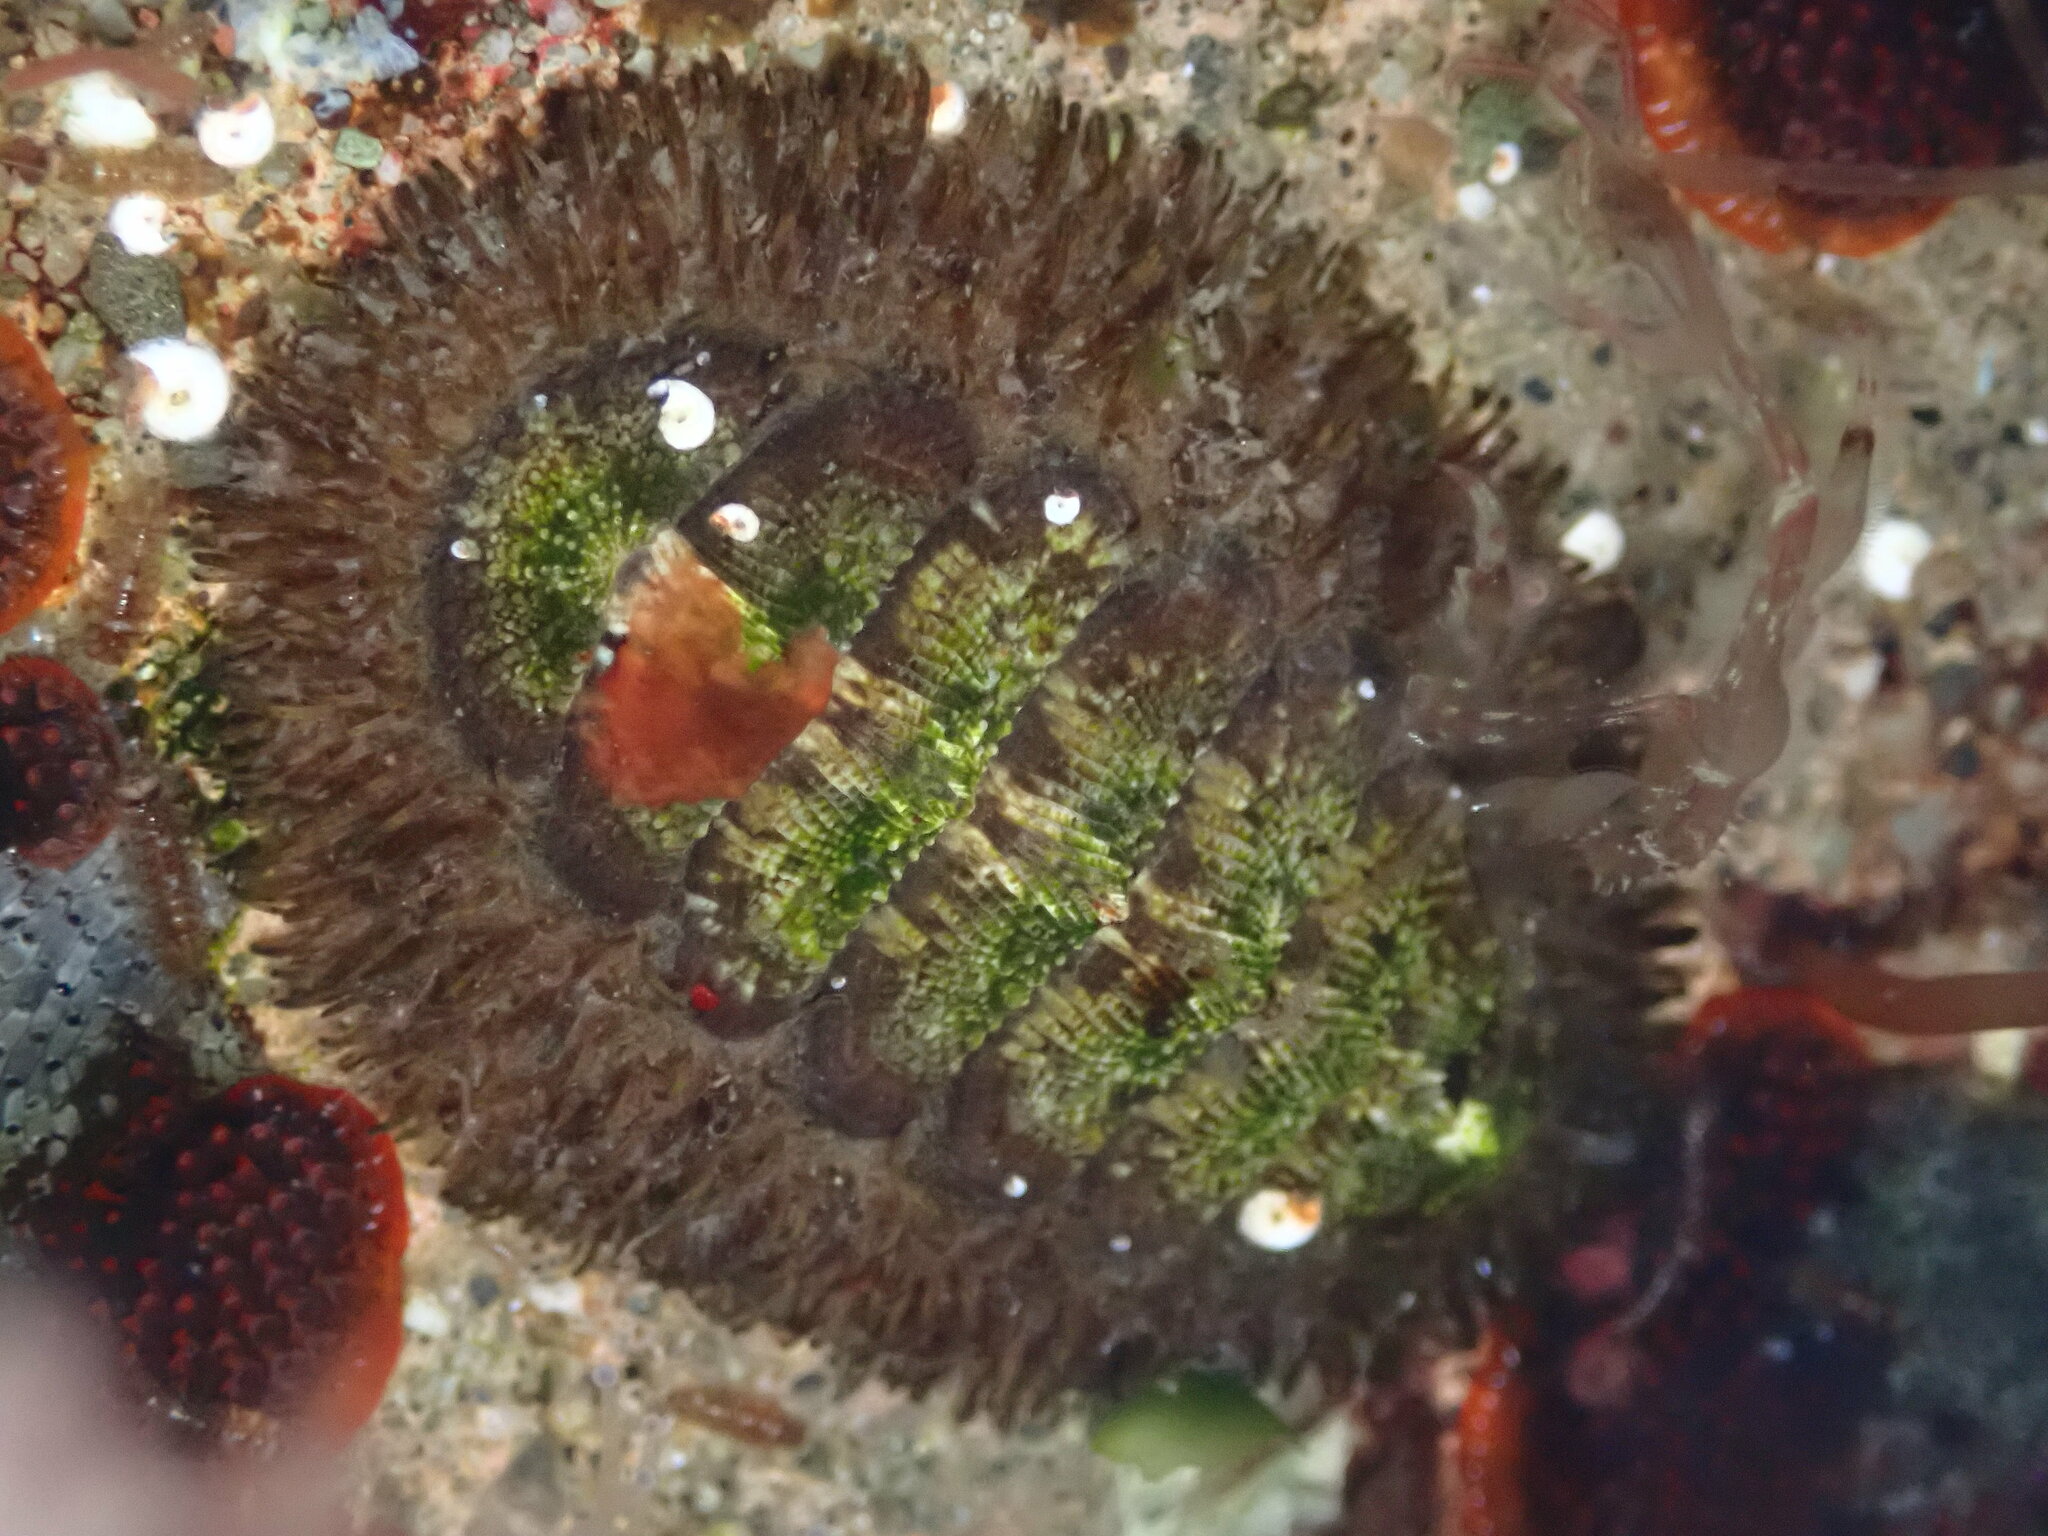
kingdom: Animalia
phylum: Mollusca
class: Polyplacophora
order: Chitonida
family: Mopaliidae
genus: Mopalia
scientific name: Mopalia muscosa
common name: Mossy chiton
